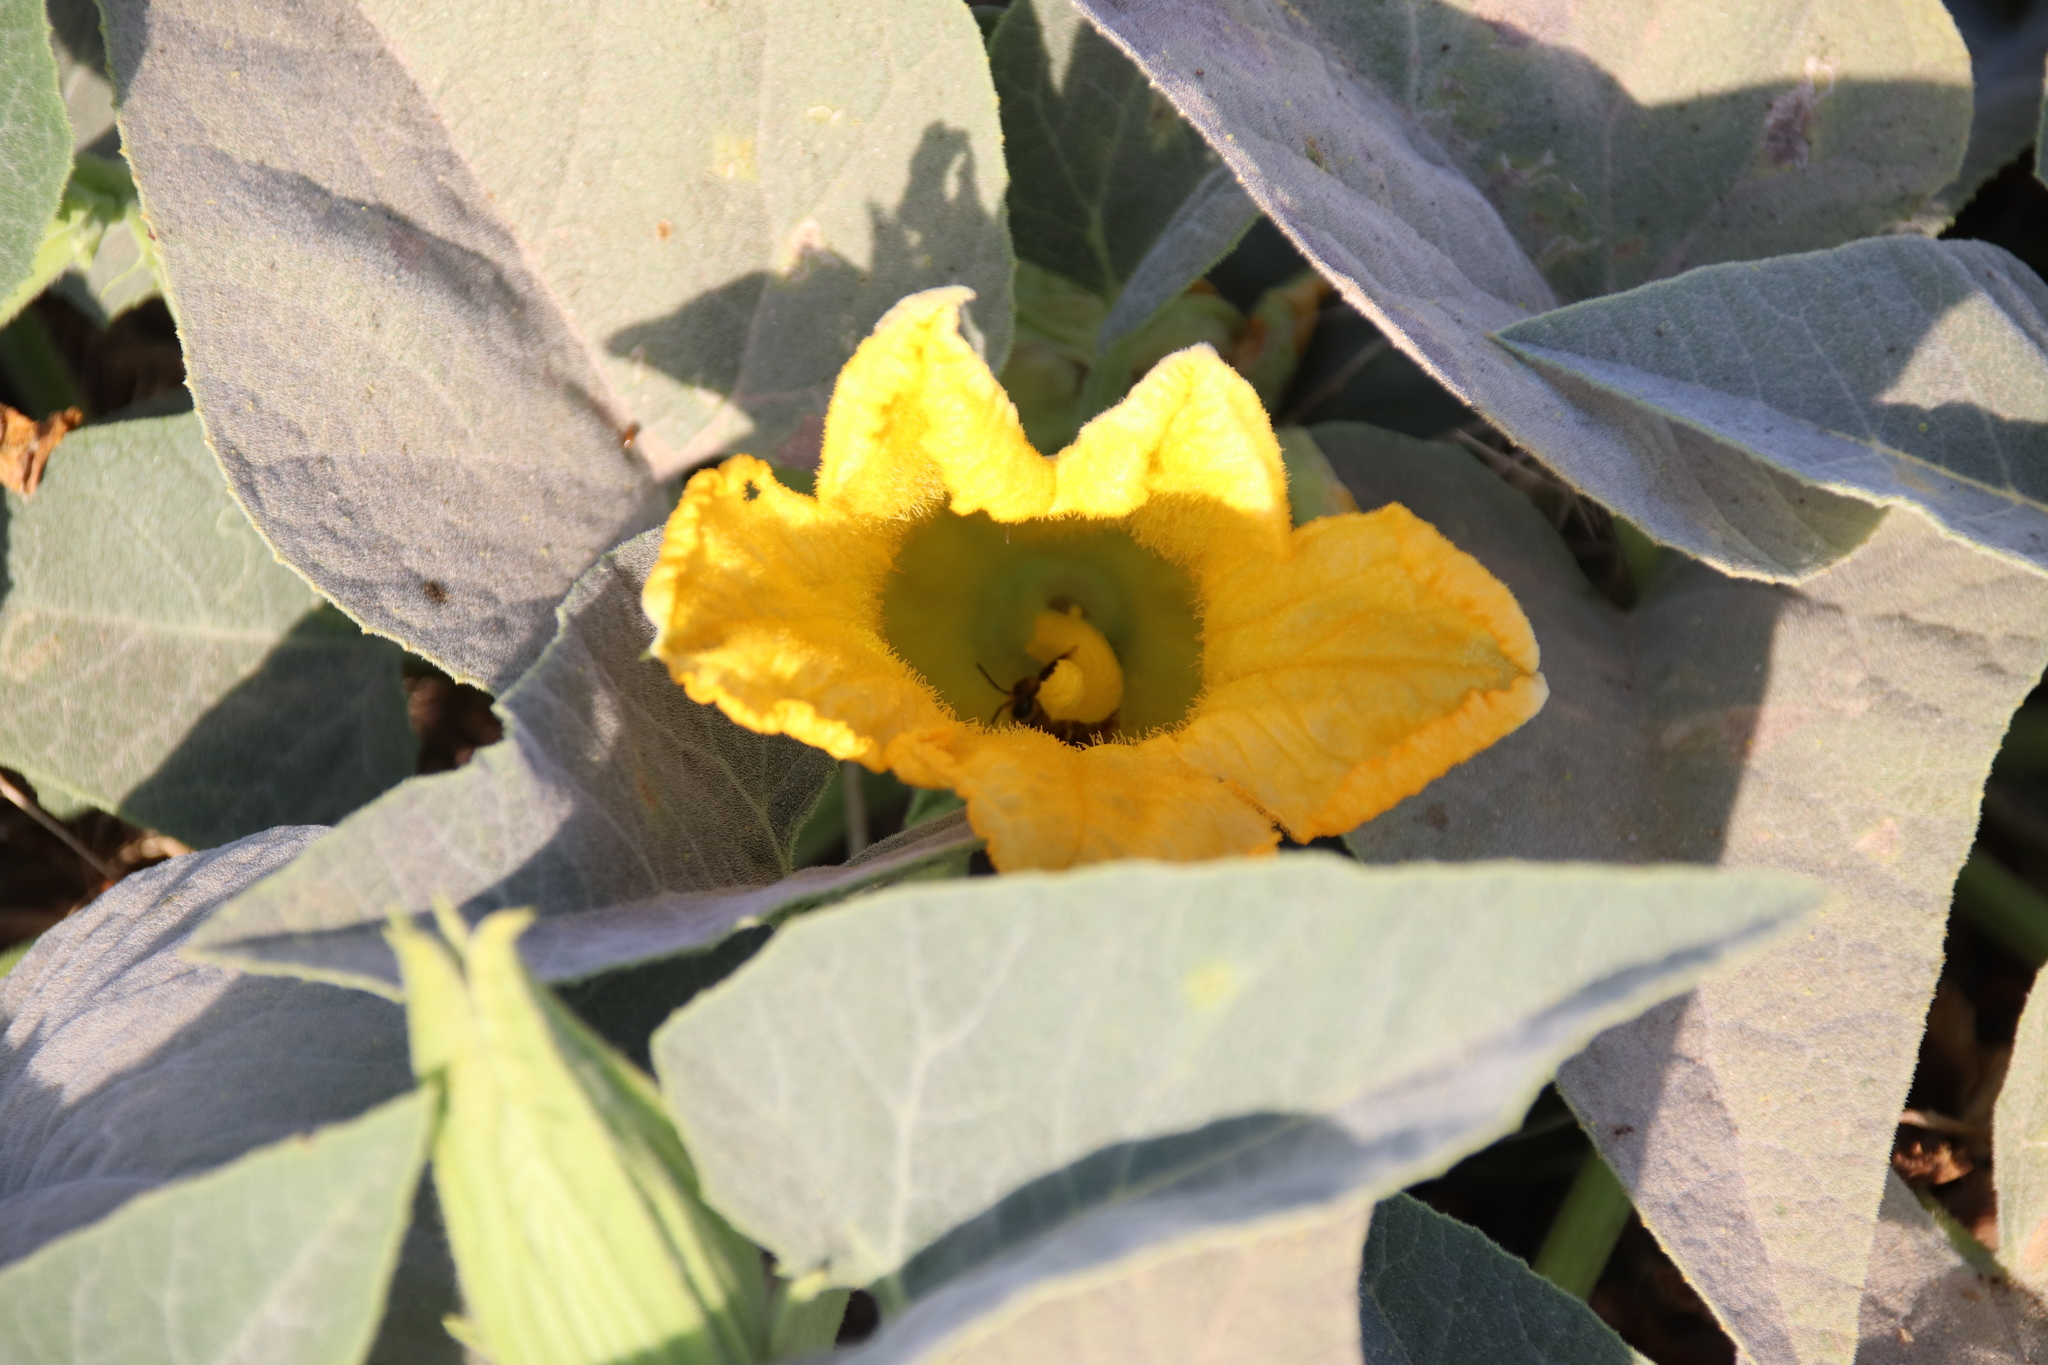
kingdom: Plantae
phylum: Tracheophyta
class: Magnoliopsida
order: Cucurbitales
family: Cucurbitaceae
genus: Cucurbita
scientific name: Cucurbita foetidissima
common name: Buffalo gourd
